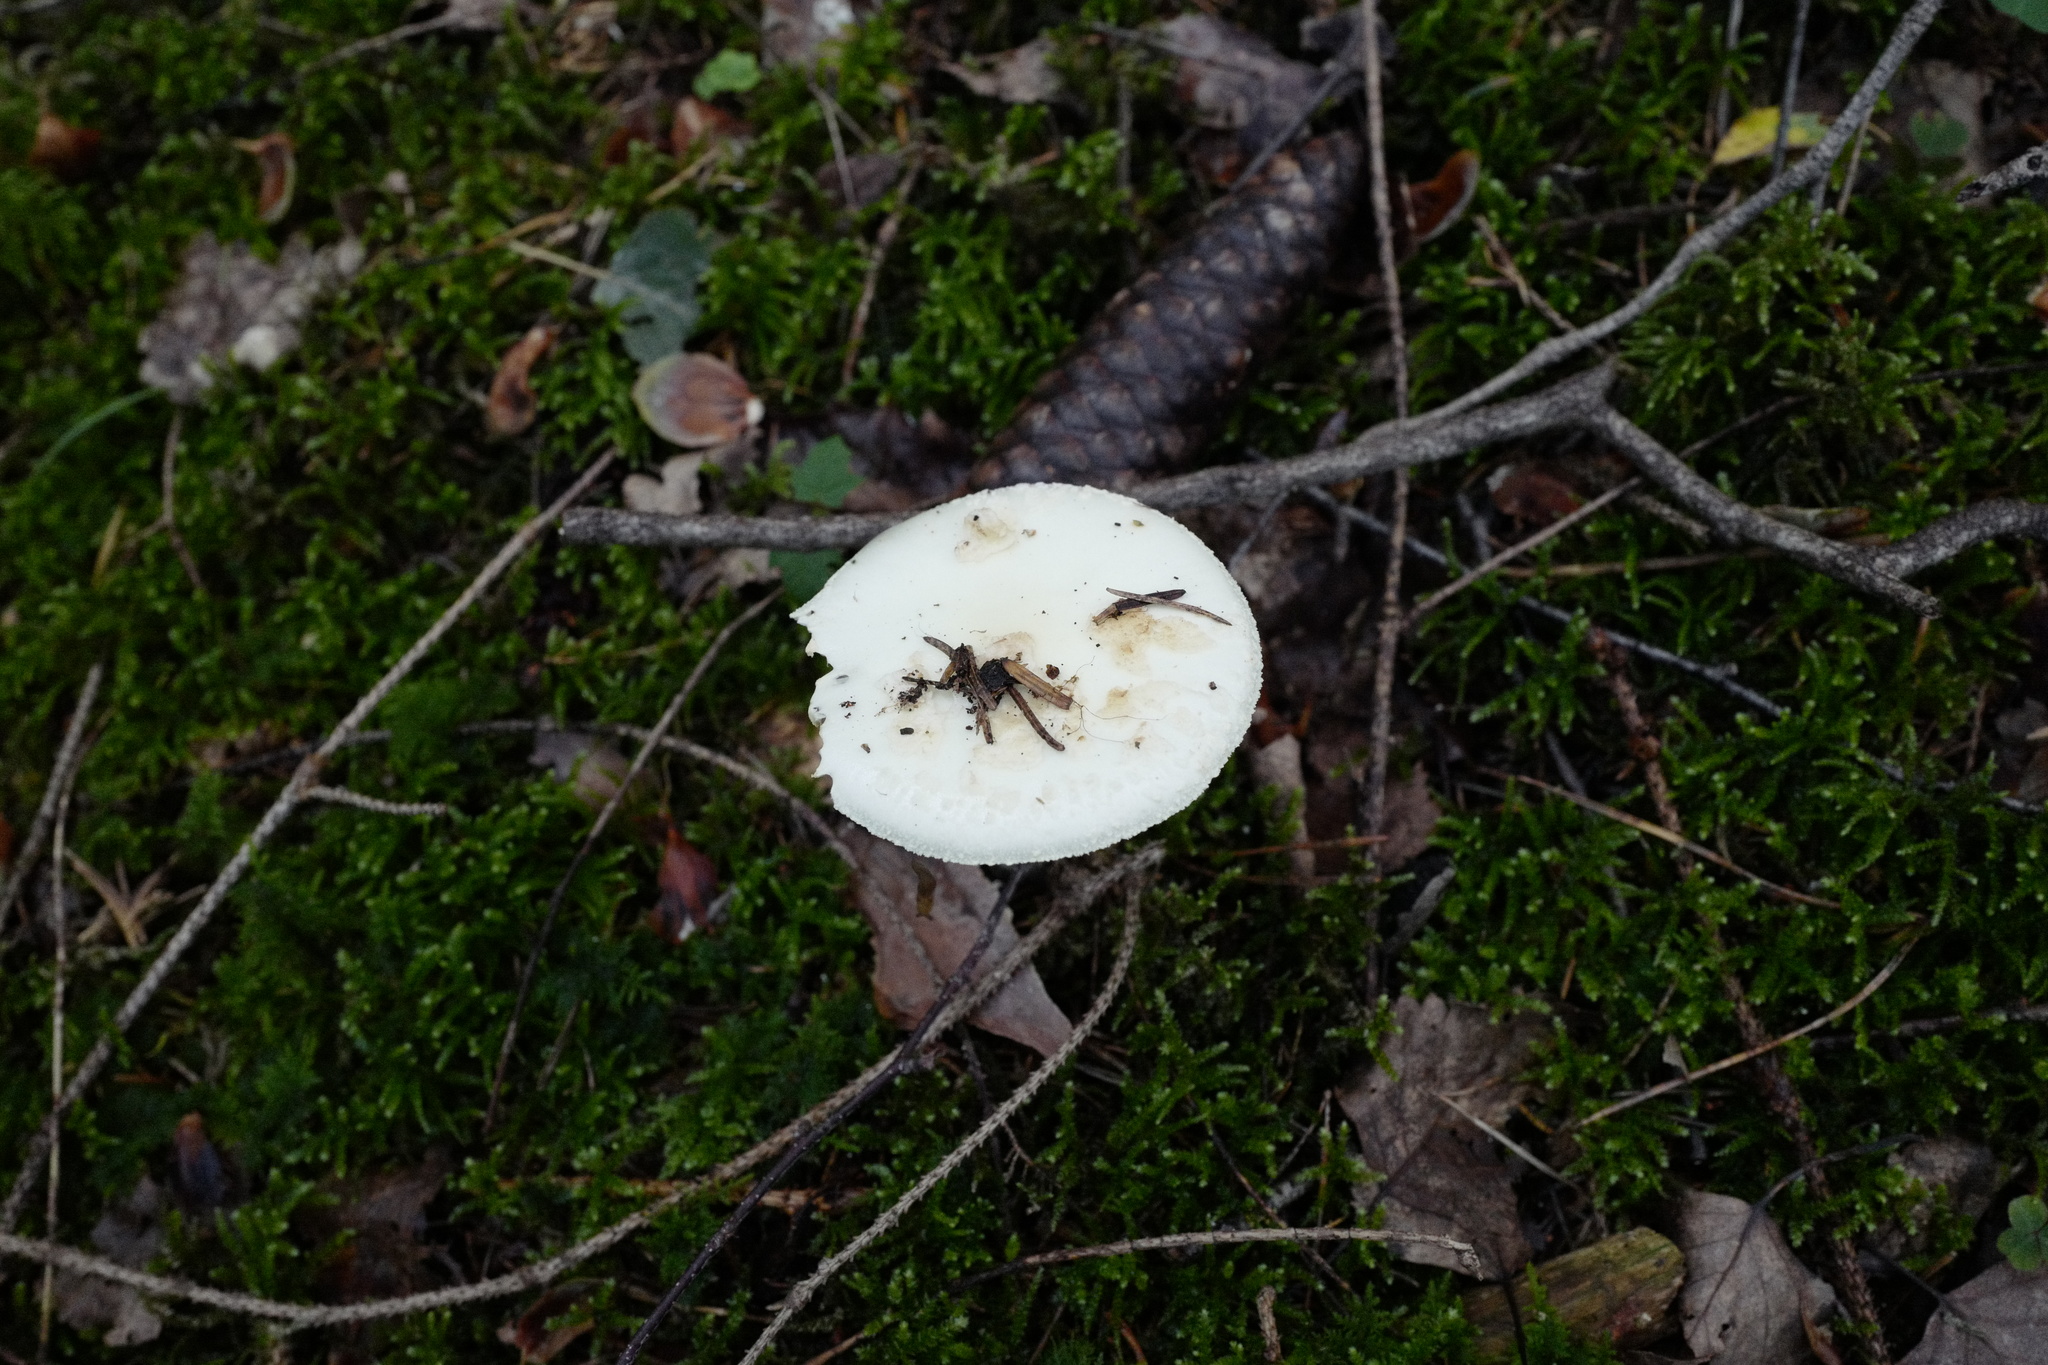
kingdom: Fungi
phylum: Basidiomycota
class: Agaricomycetes
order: Agaricales
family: Amanitaceae
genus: Amanita
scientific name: Amanita citrina
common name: False death-cap
